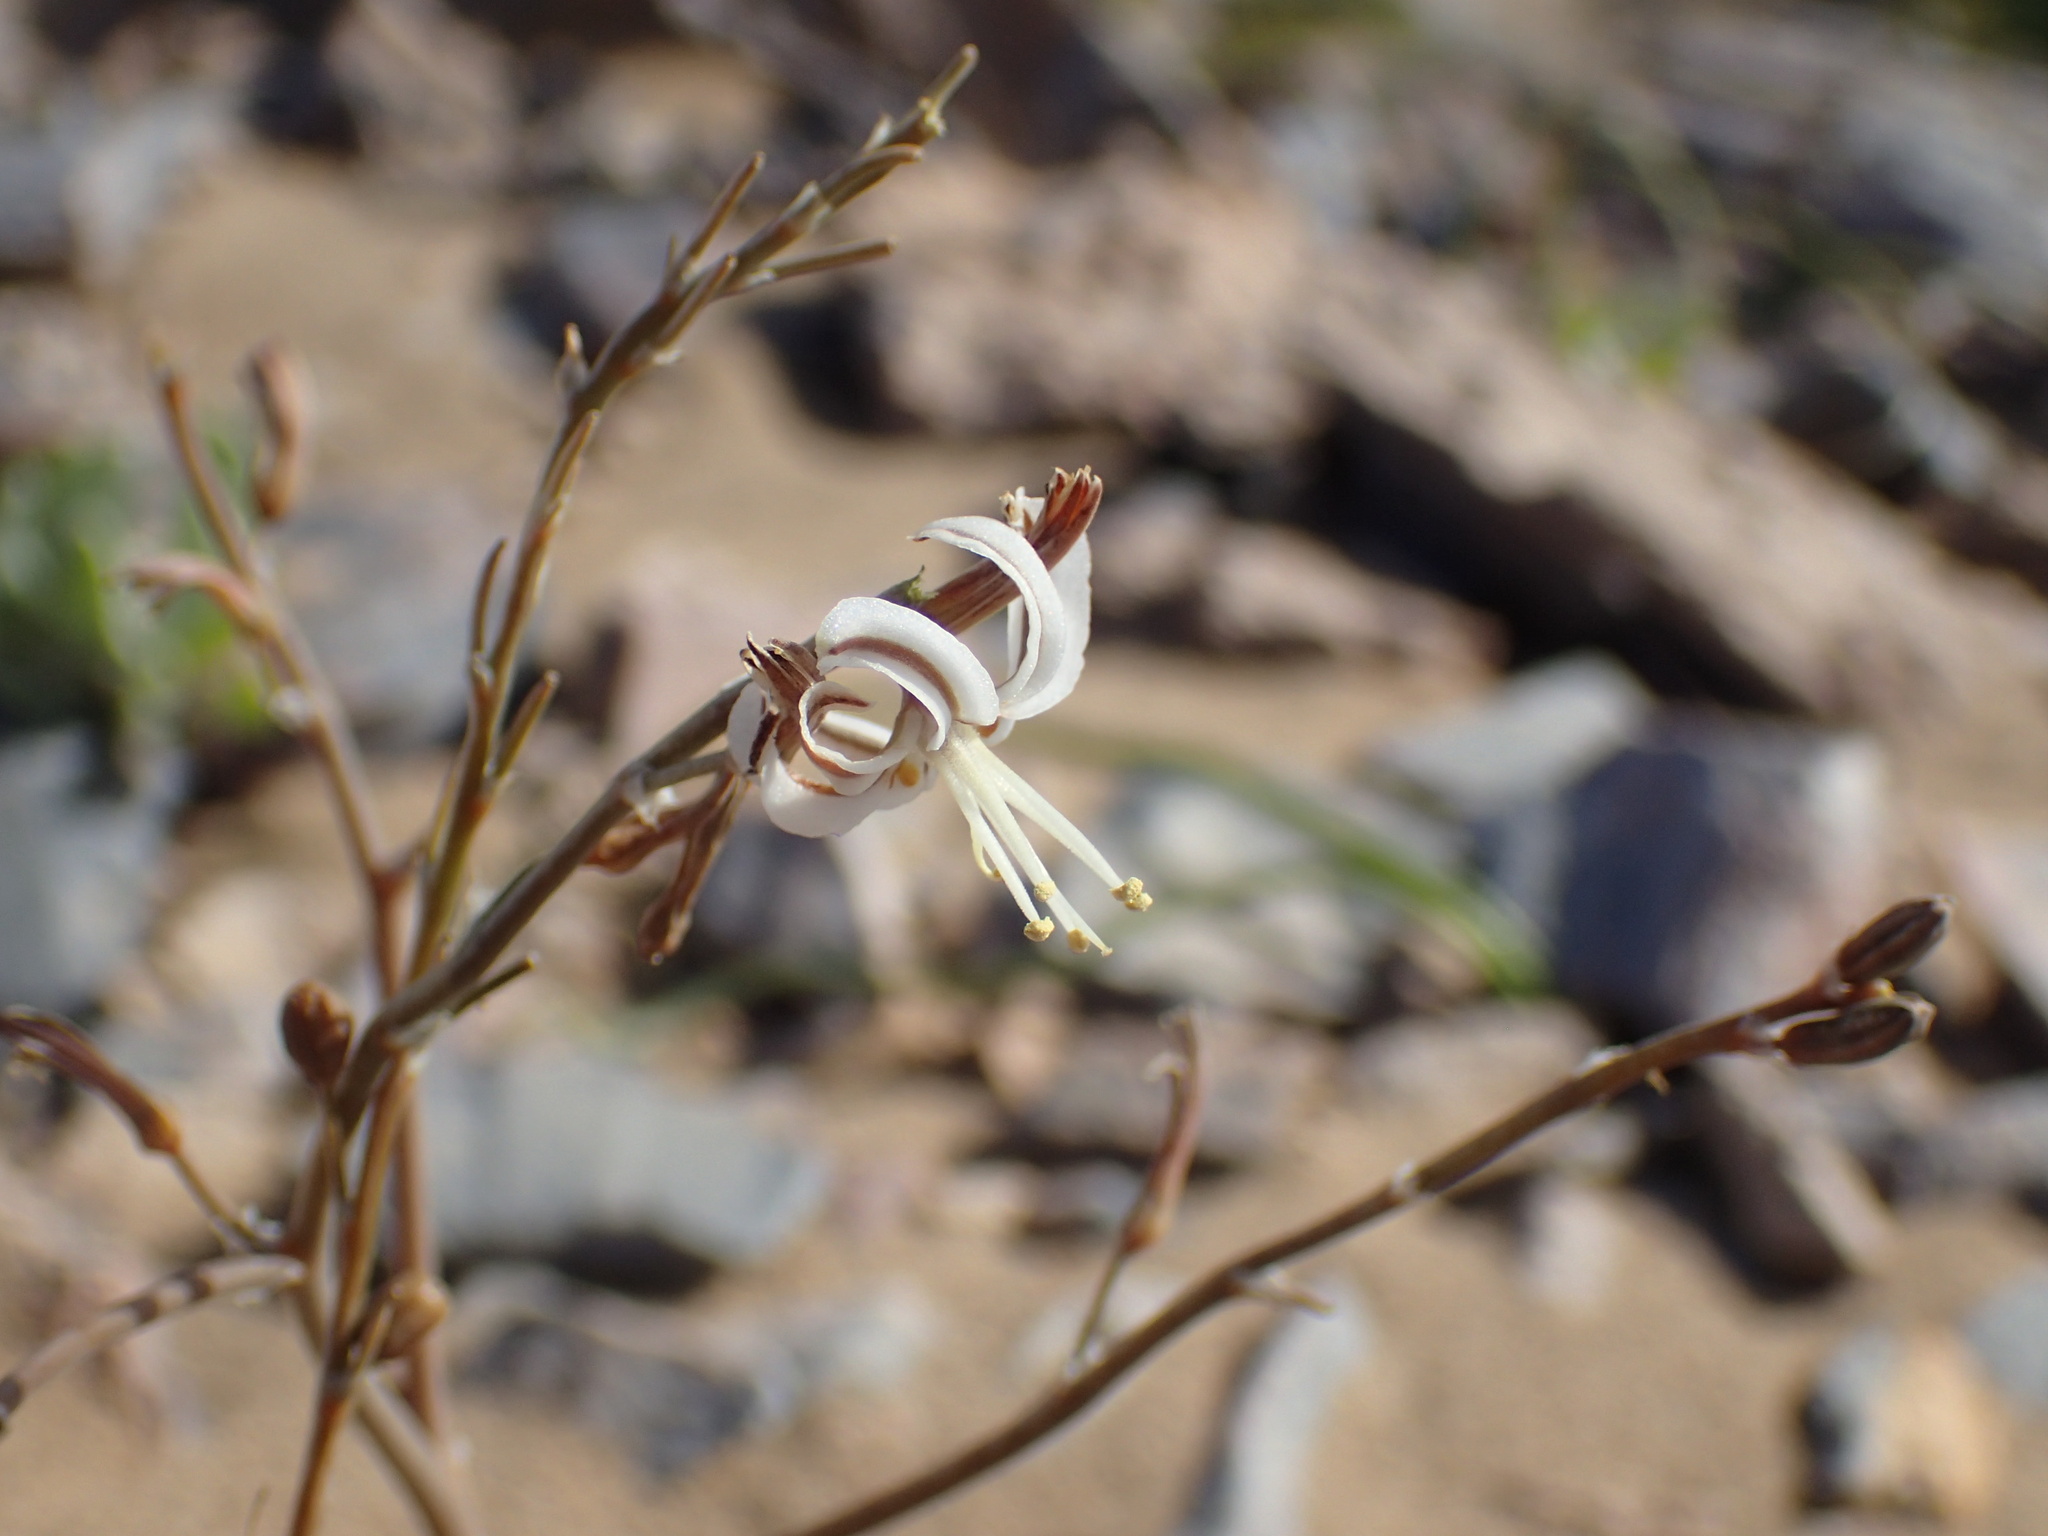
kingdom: Plantae
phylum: Tracheophyta
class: Liliopsida
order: Asparagales
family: Asphodelaceae
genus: Trachyandra
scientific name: Trachyandra bulbinifolia
